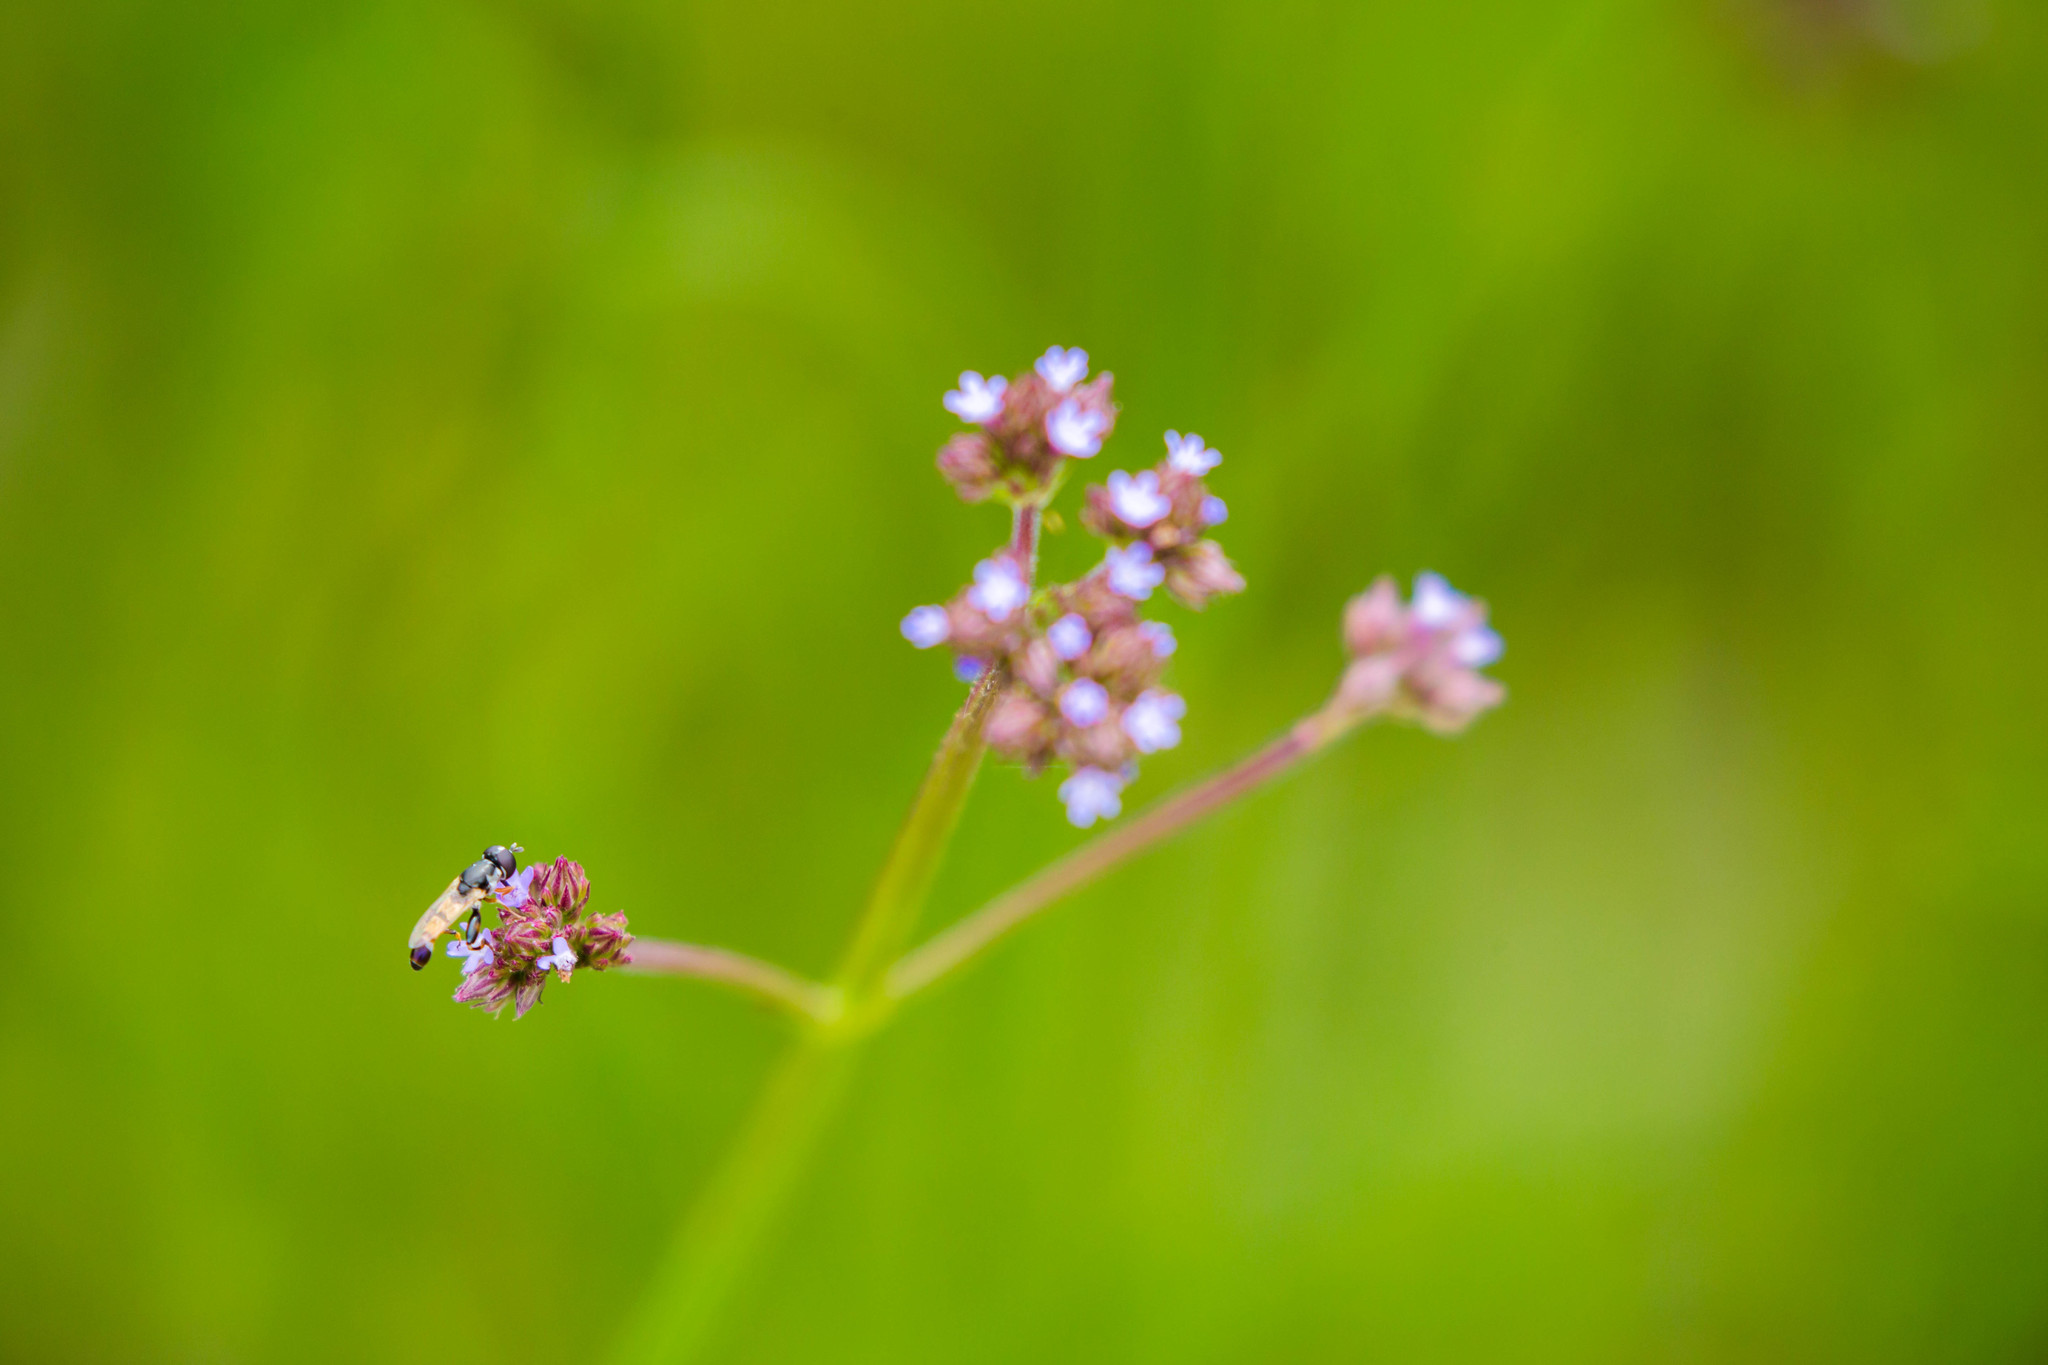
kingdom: Animalia
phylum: Arthropoda
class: Insecta
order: Diptera
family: Syrphidae
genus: Syritta
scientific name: Syritta flaviventris
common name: Syrphid fly
